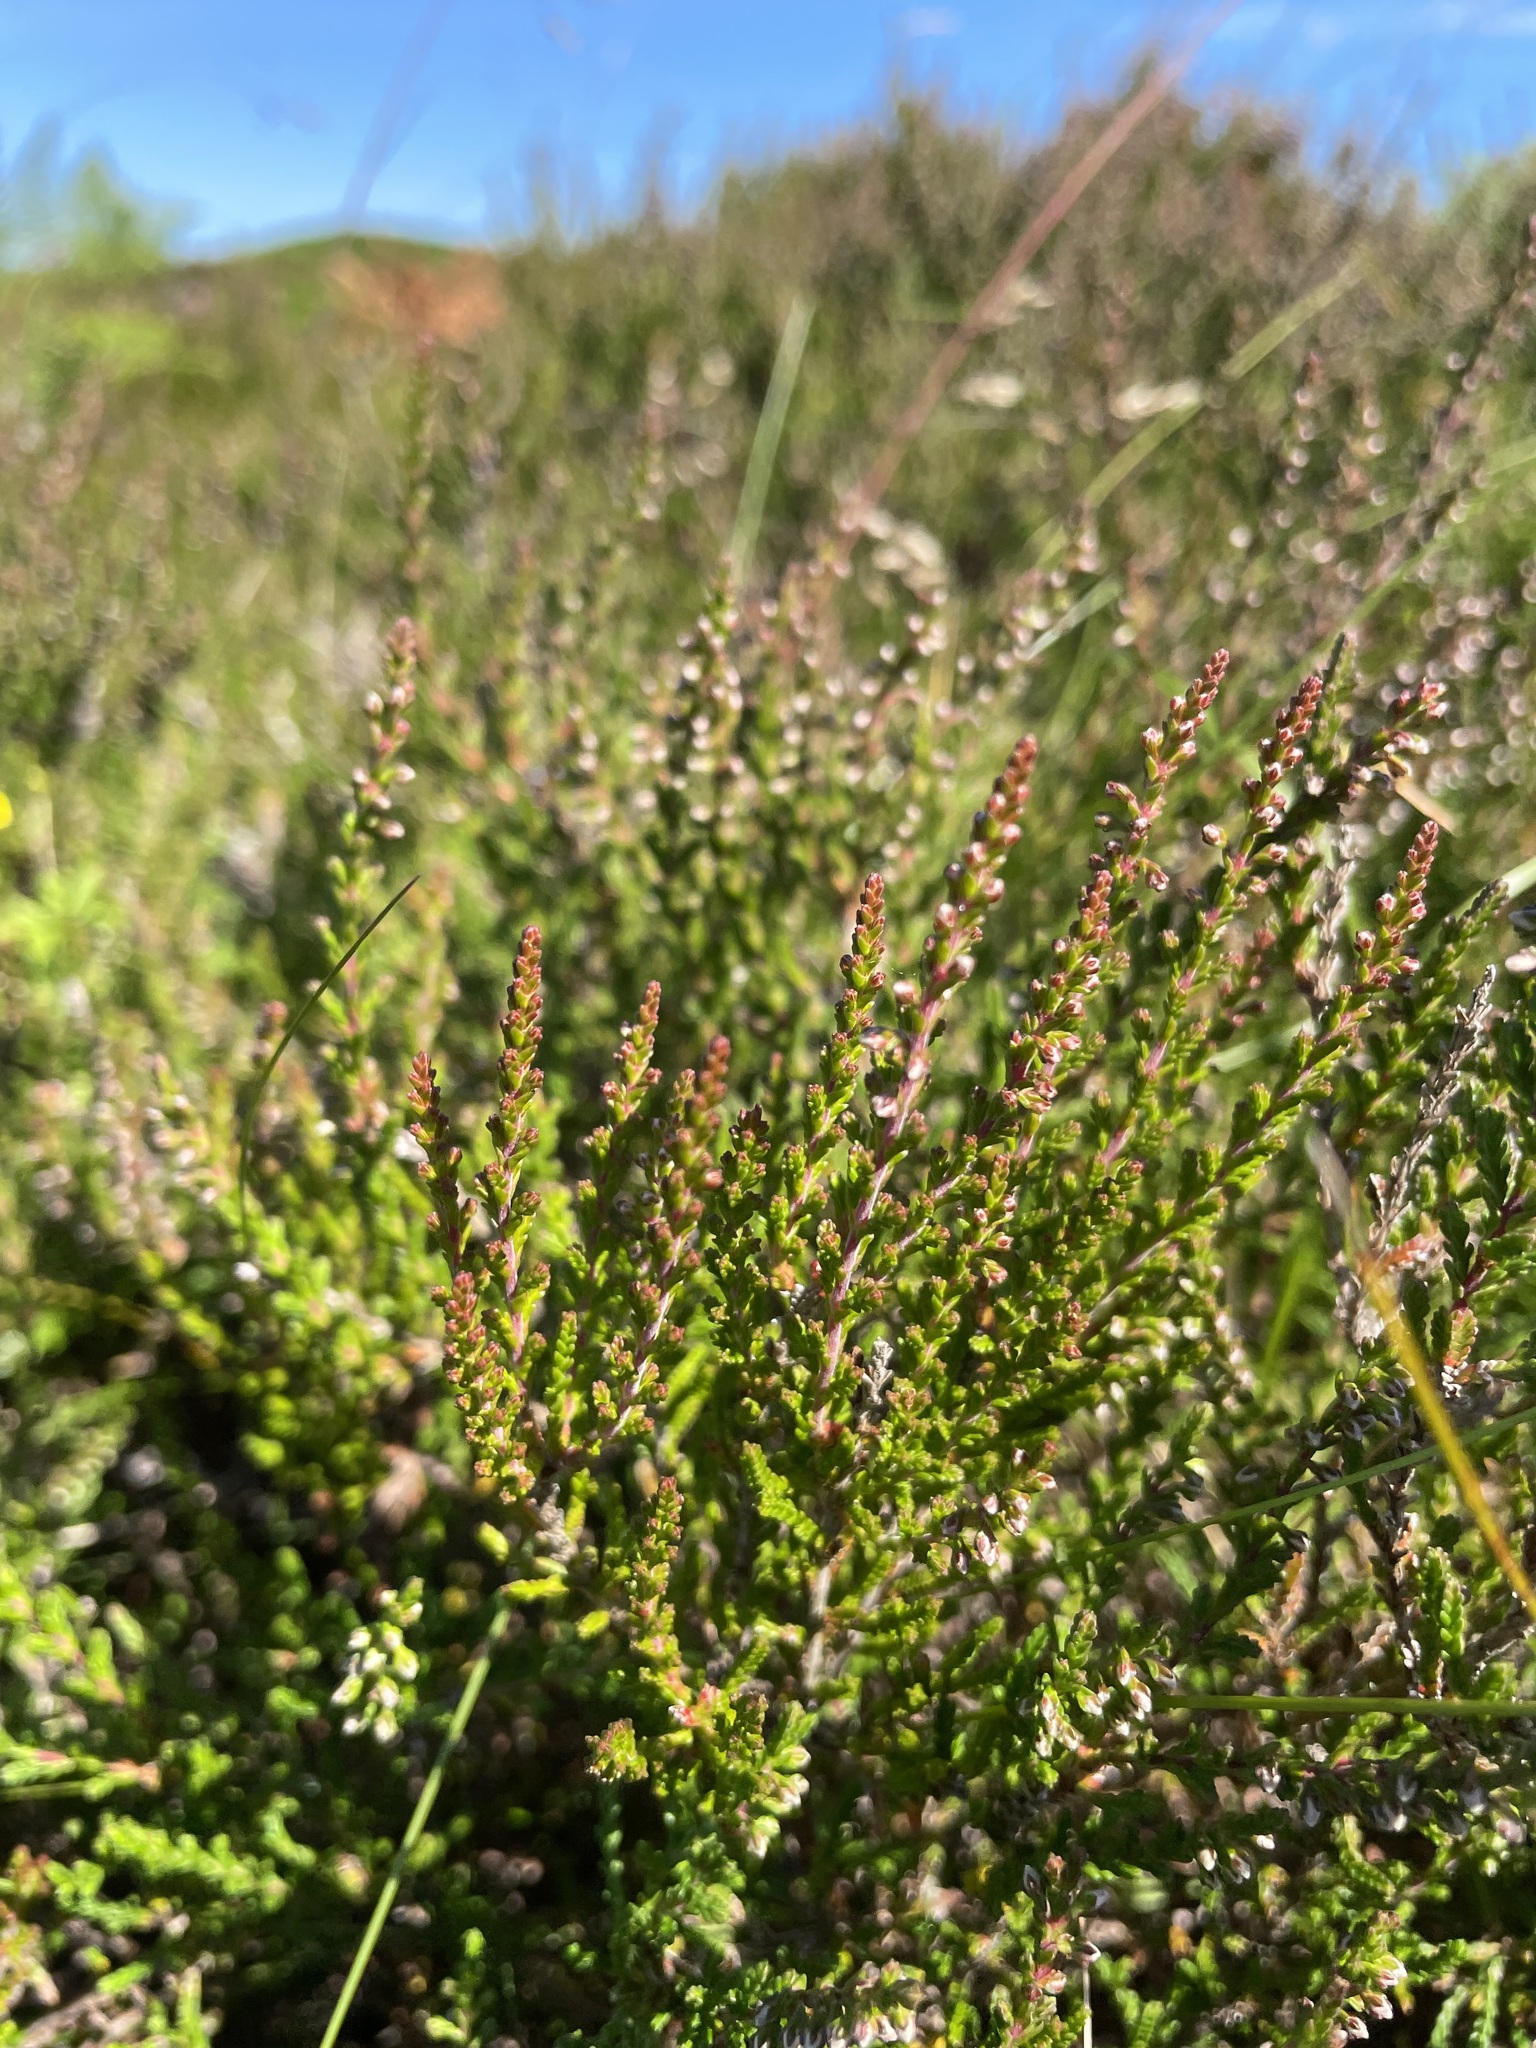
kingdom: Plantae
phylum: Tracheophyta
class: Magnoliopsida
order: Ericales
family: Ericaceae
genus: Calluna
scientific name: Calluna vulgaris
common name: Heather
